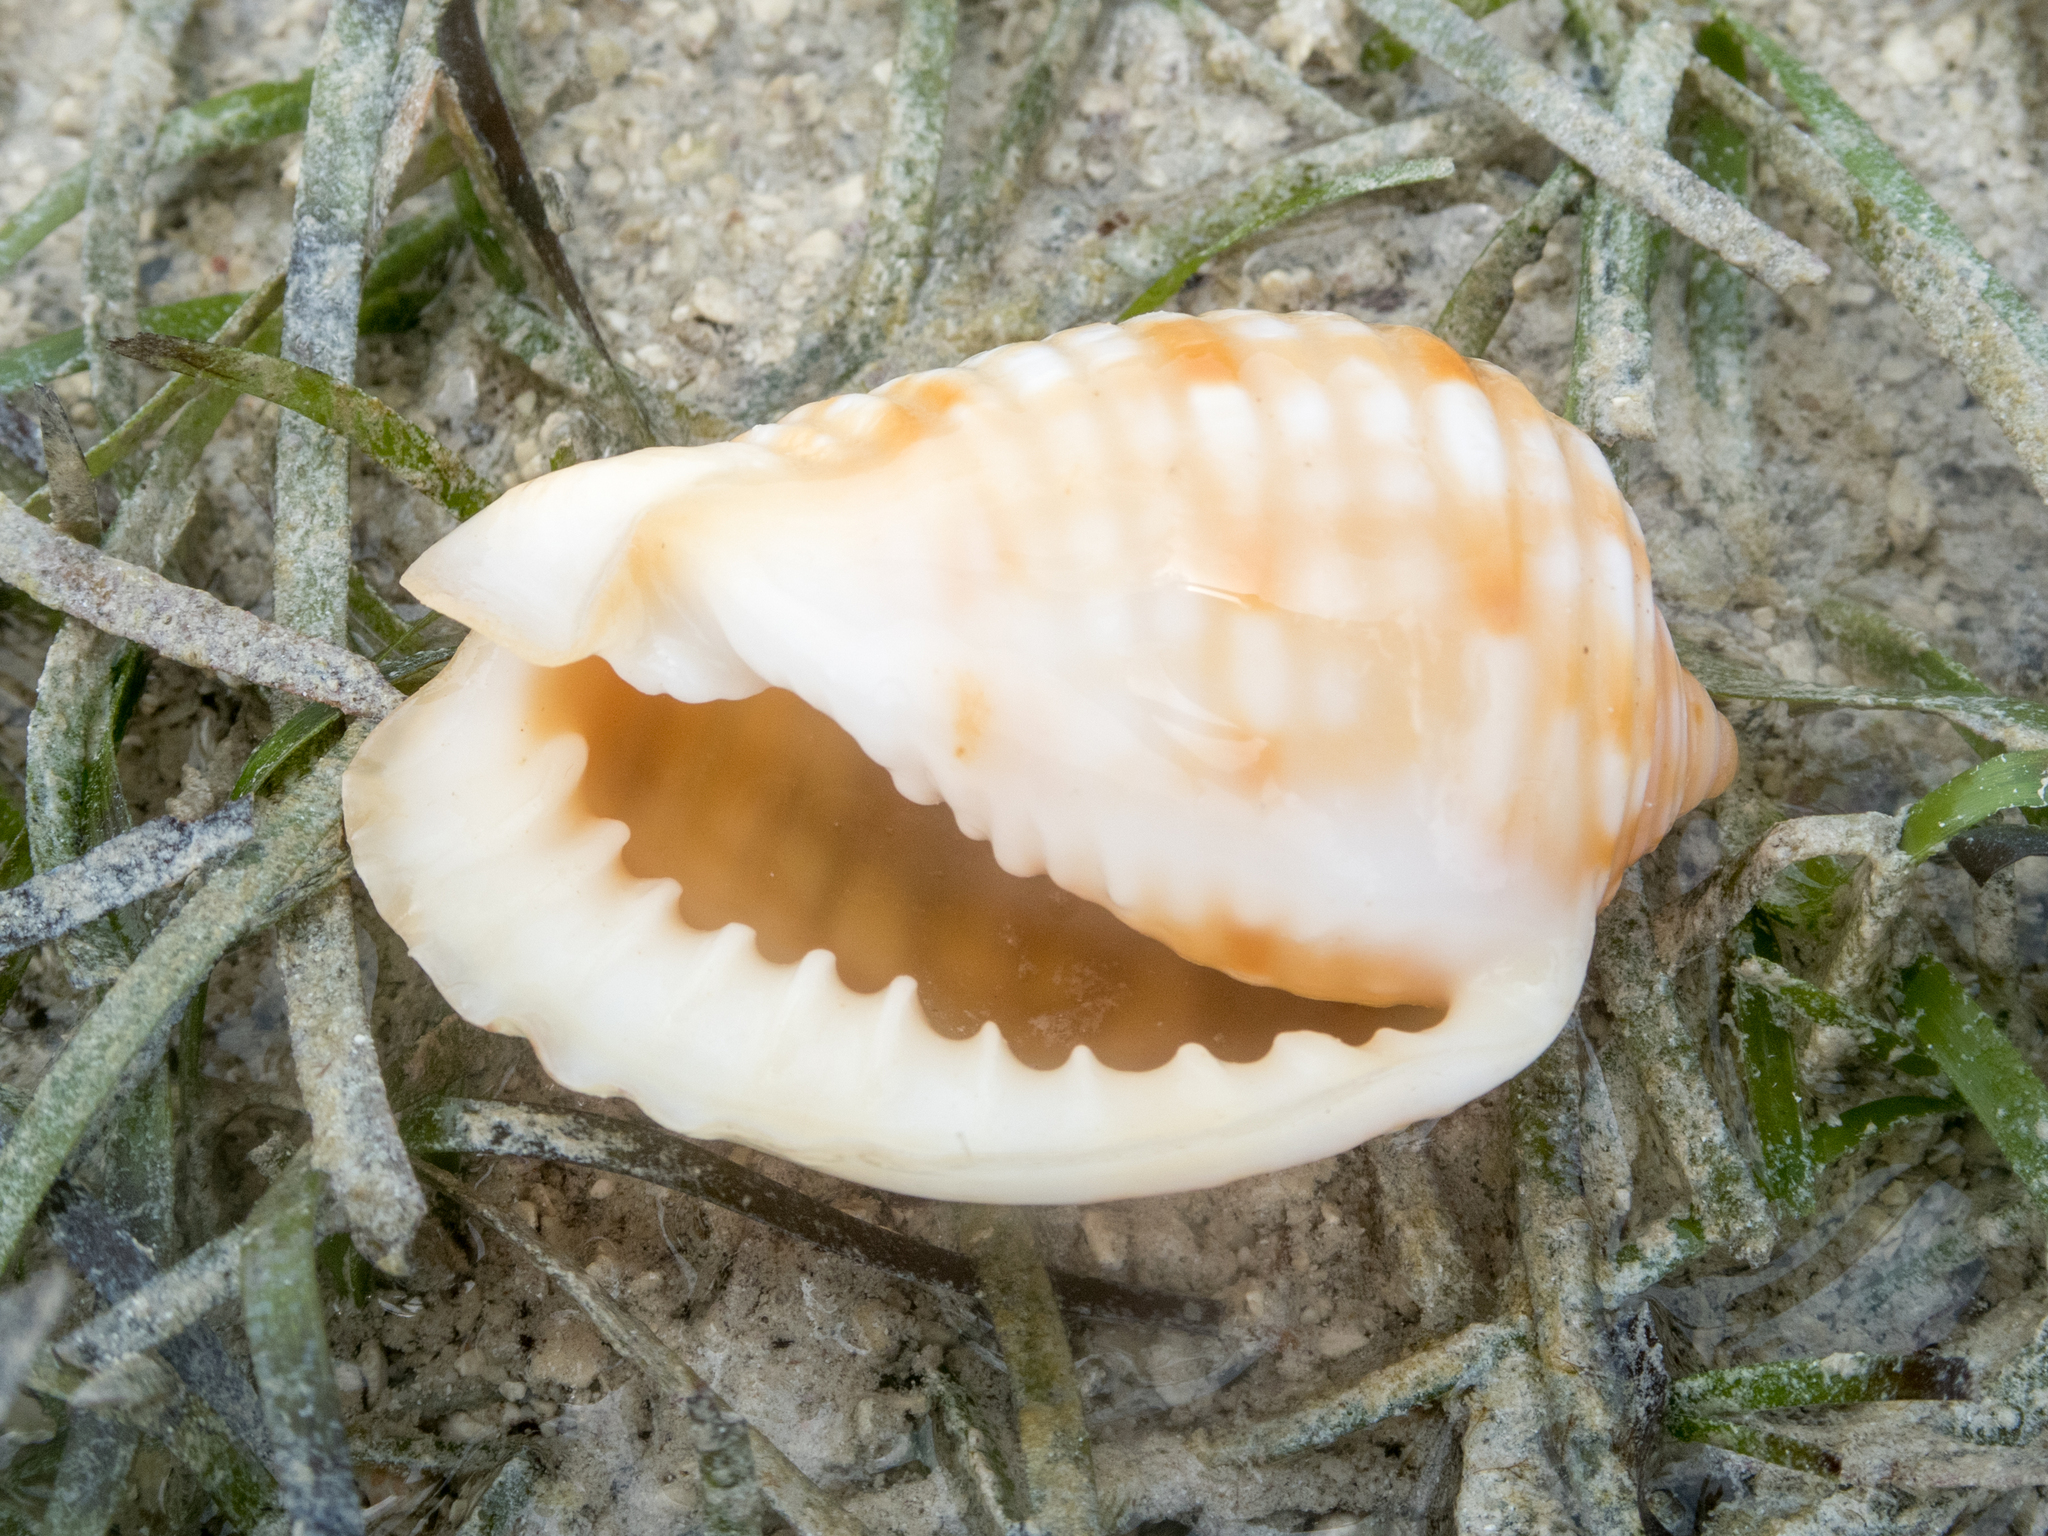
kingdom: Animalia
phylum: Mollusca
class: Gastropoda
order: Littorinimorpha
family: Tonnidae
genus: Malea
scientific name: Malea pomum
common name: Pacific grinning tun
